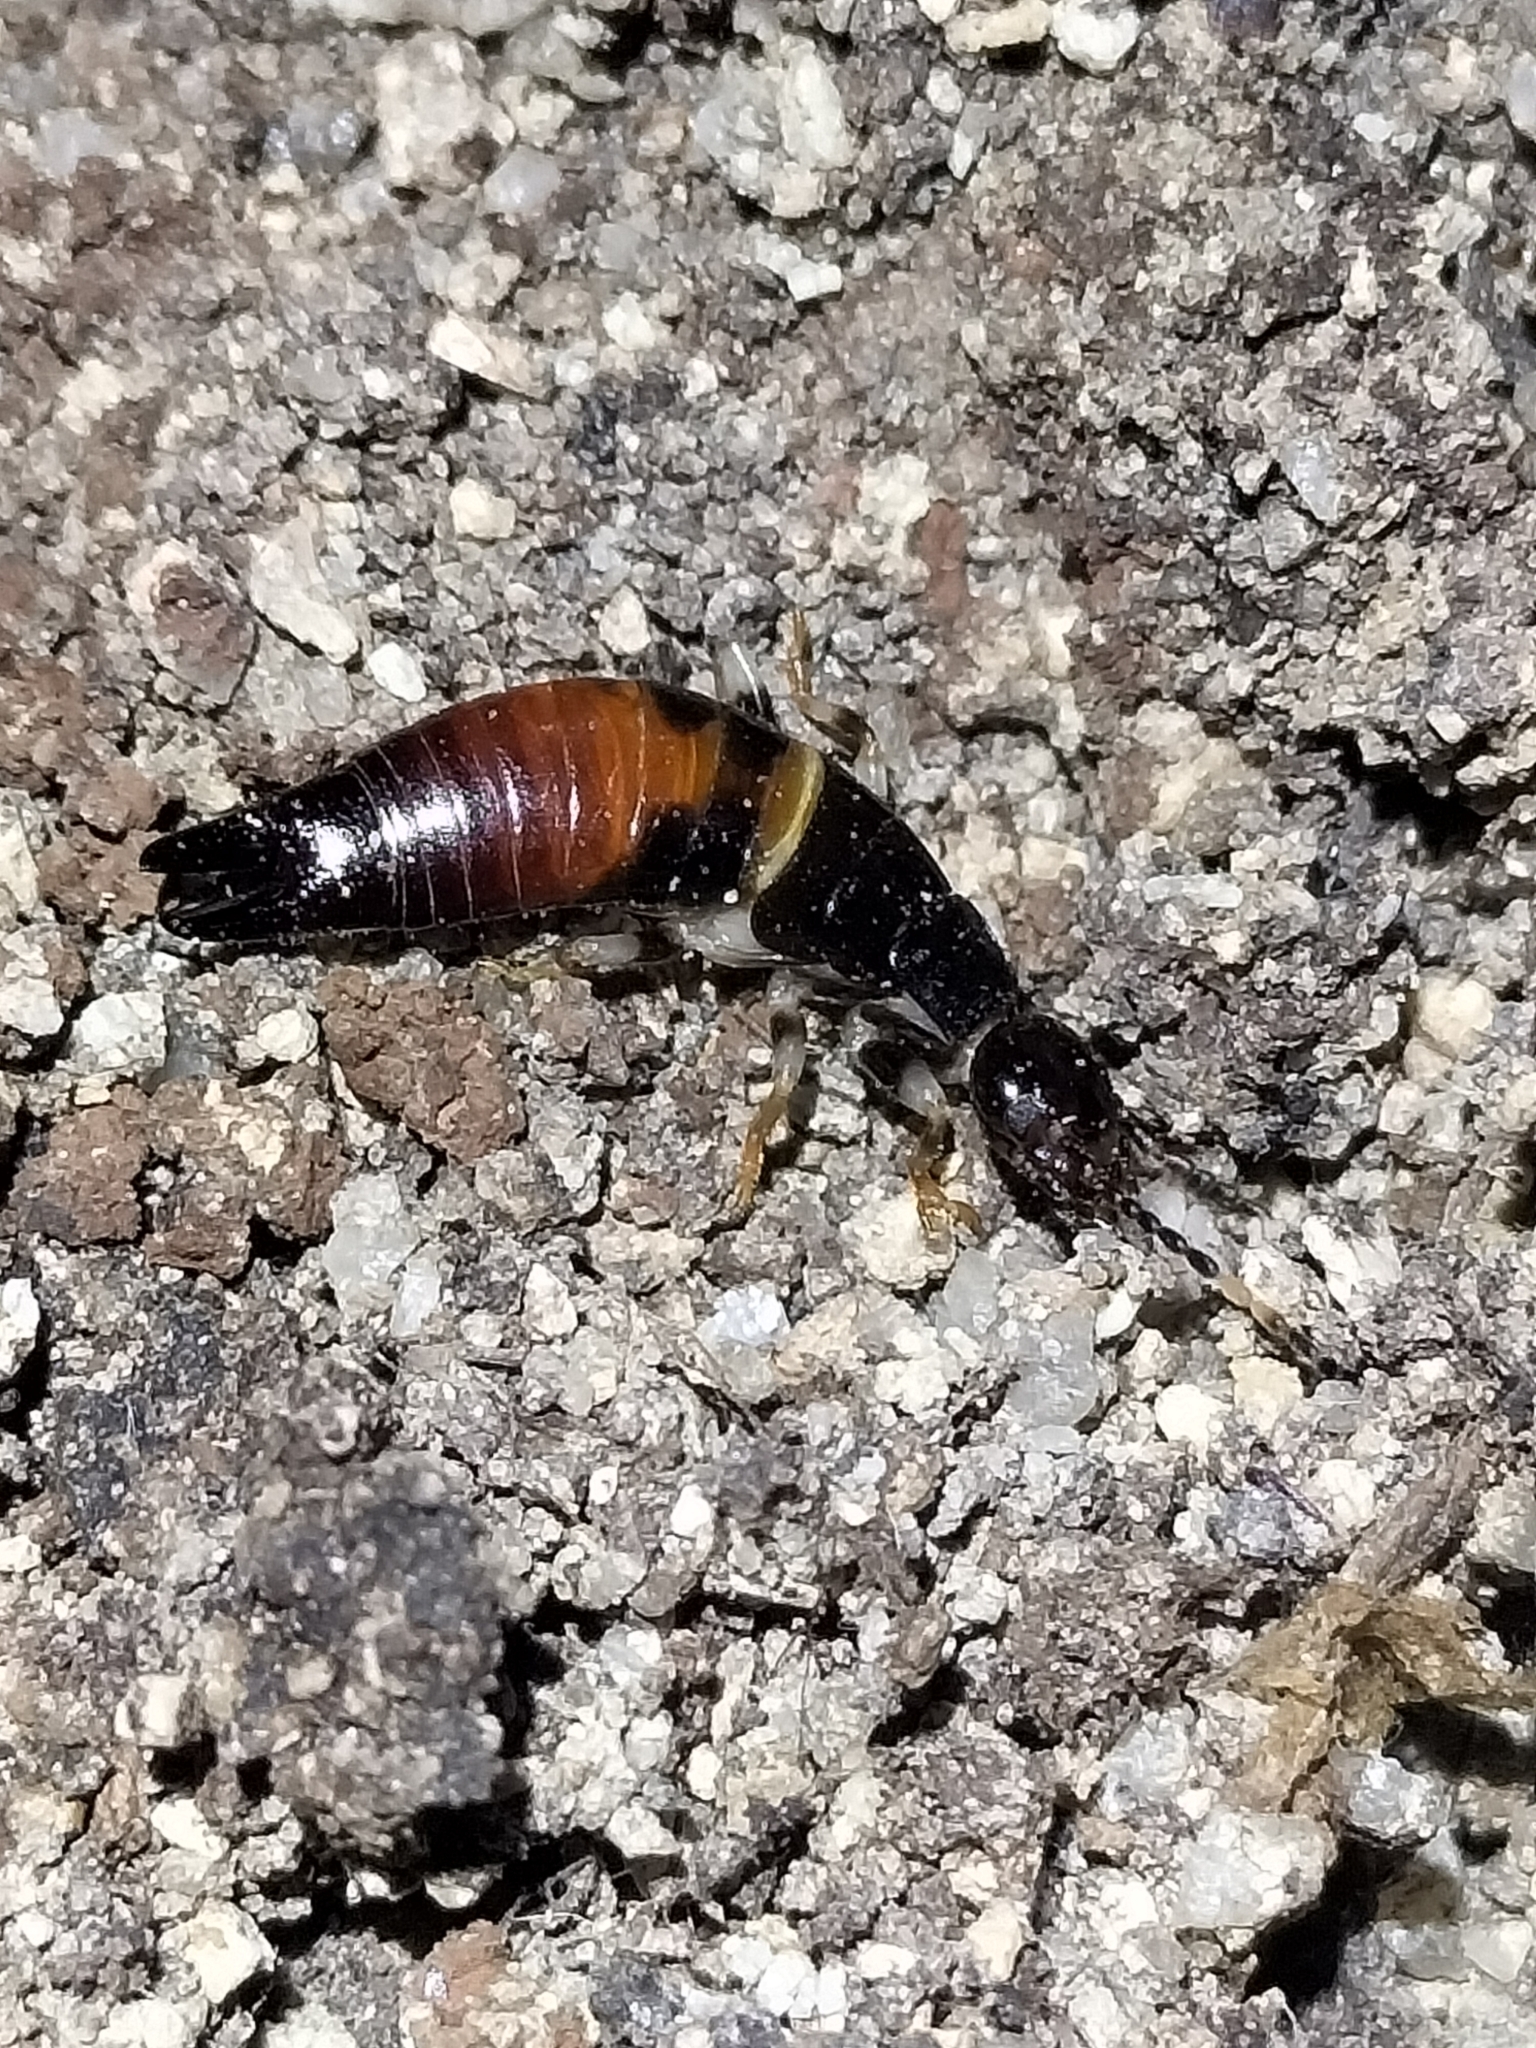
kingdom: Animalia
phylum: Arthropoda
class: Insecta
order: Dermaptera
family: Anisolabididae
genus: Titanolabis
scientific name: Titanolabis colossea
